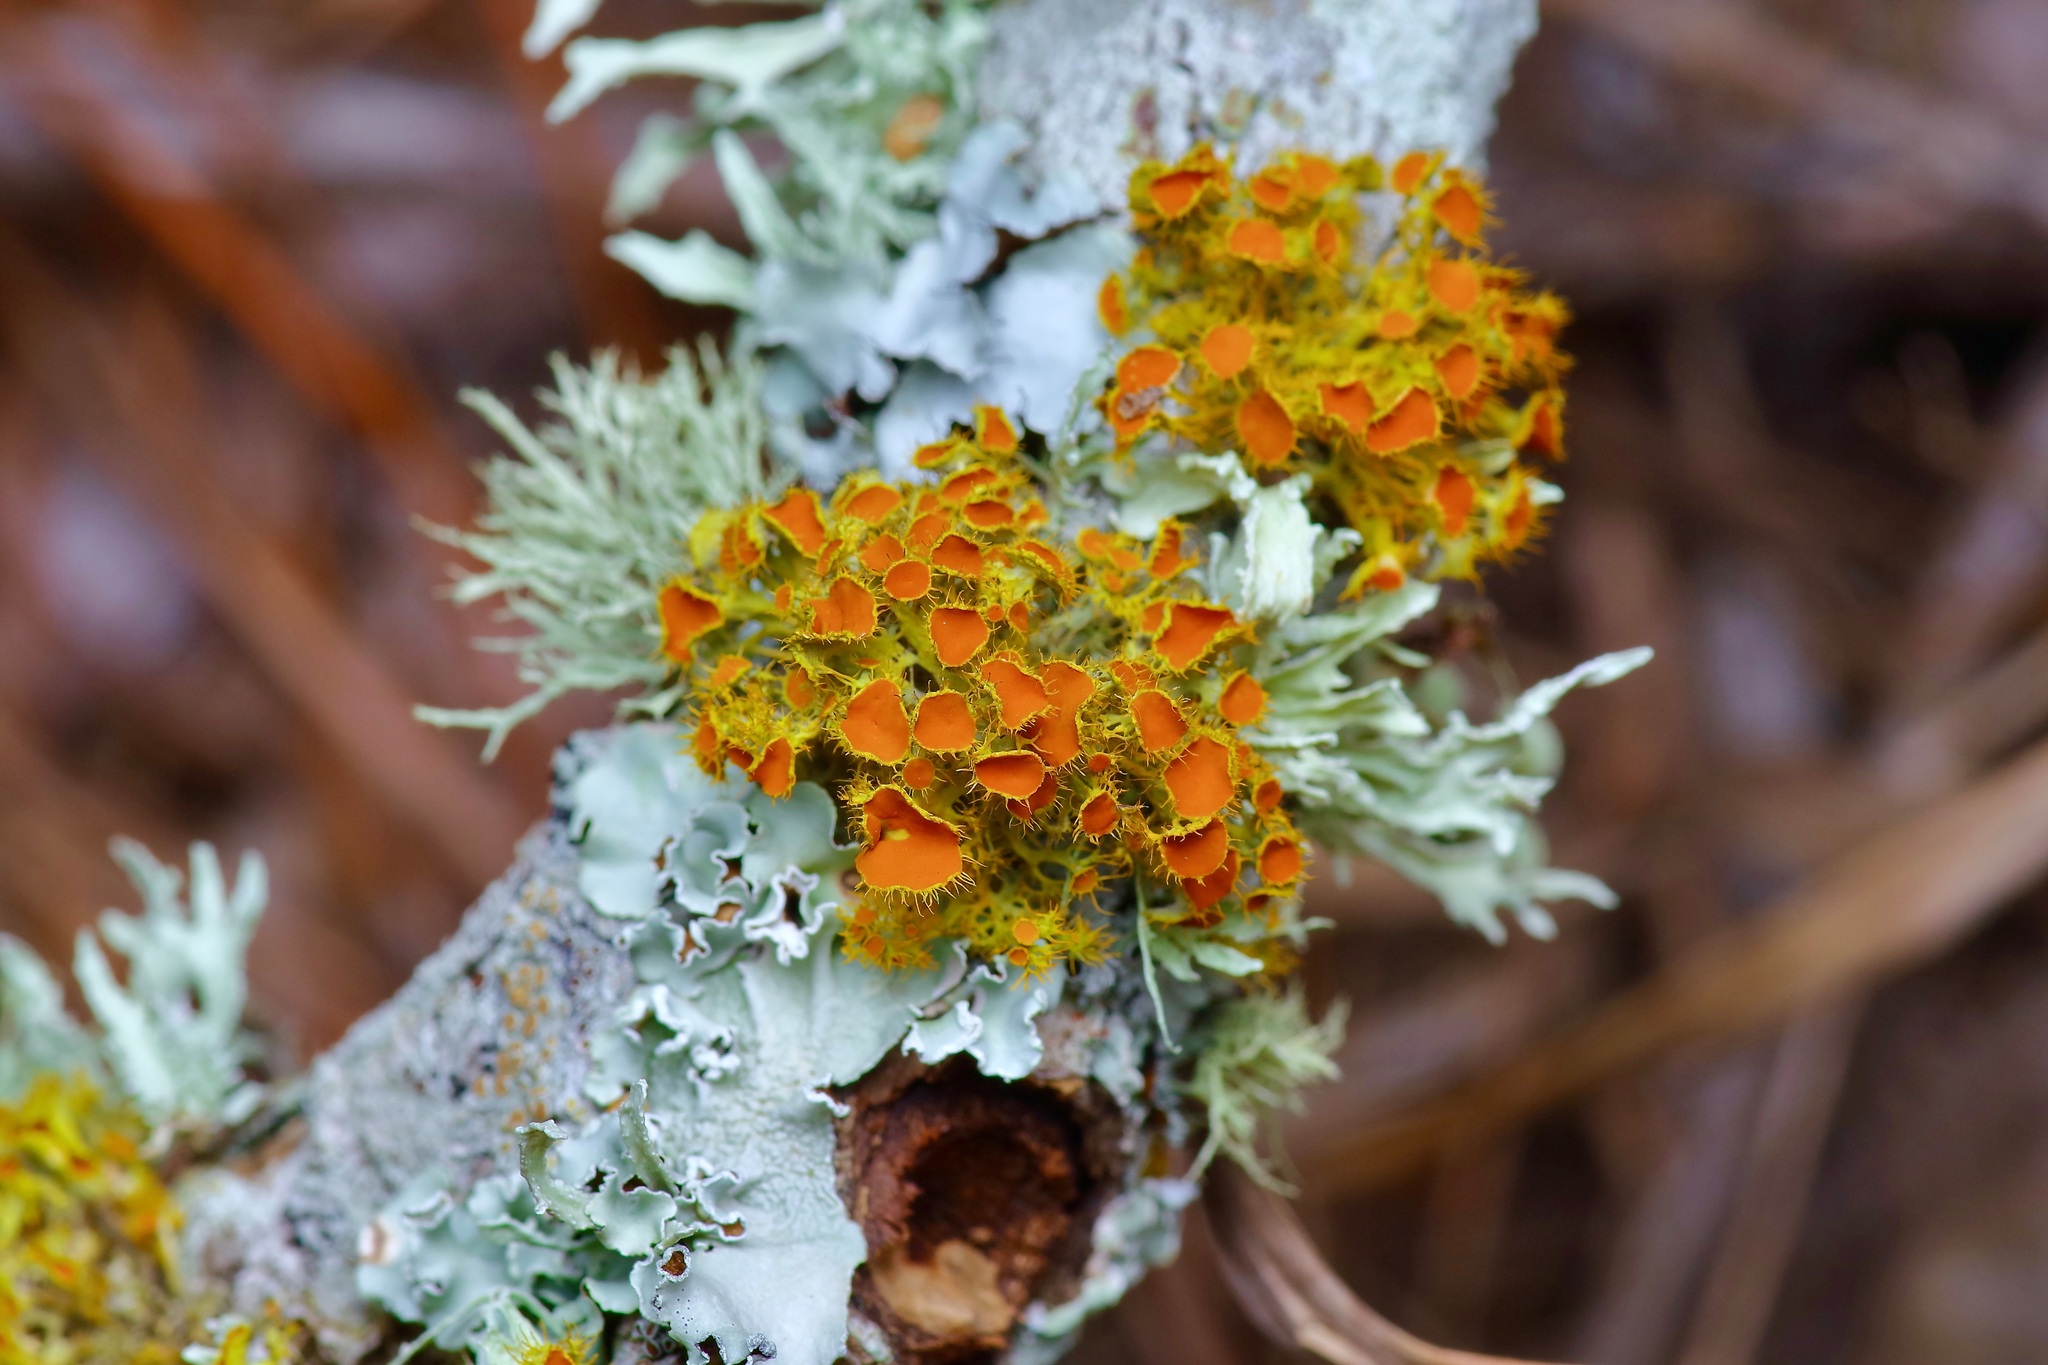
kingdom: Fungi
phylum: Ascomycota
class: Lecanoromycetes
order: Teloschistales
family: Teloschistaceae
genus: Niorma
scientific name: Niorma chrysophthalma
